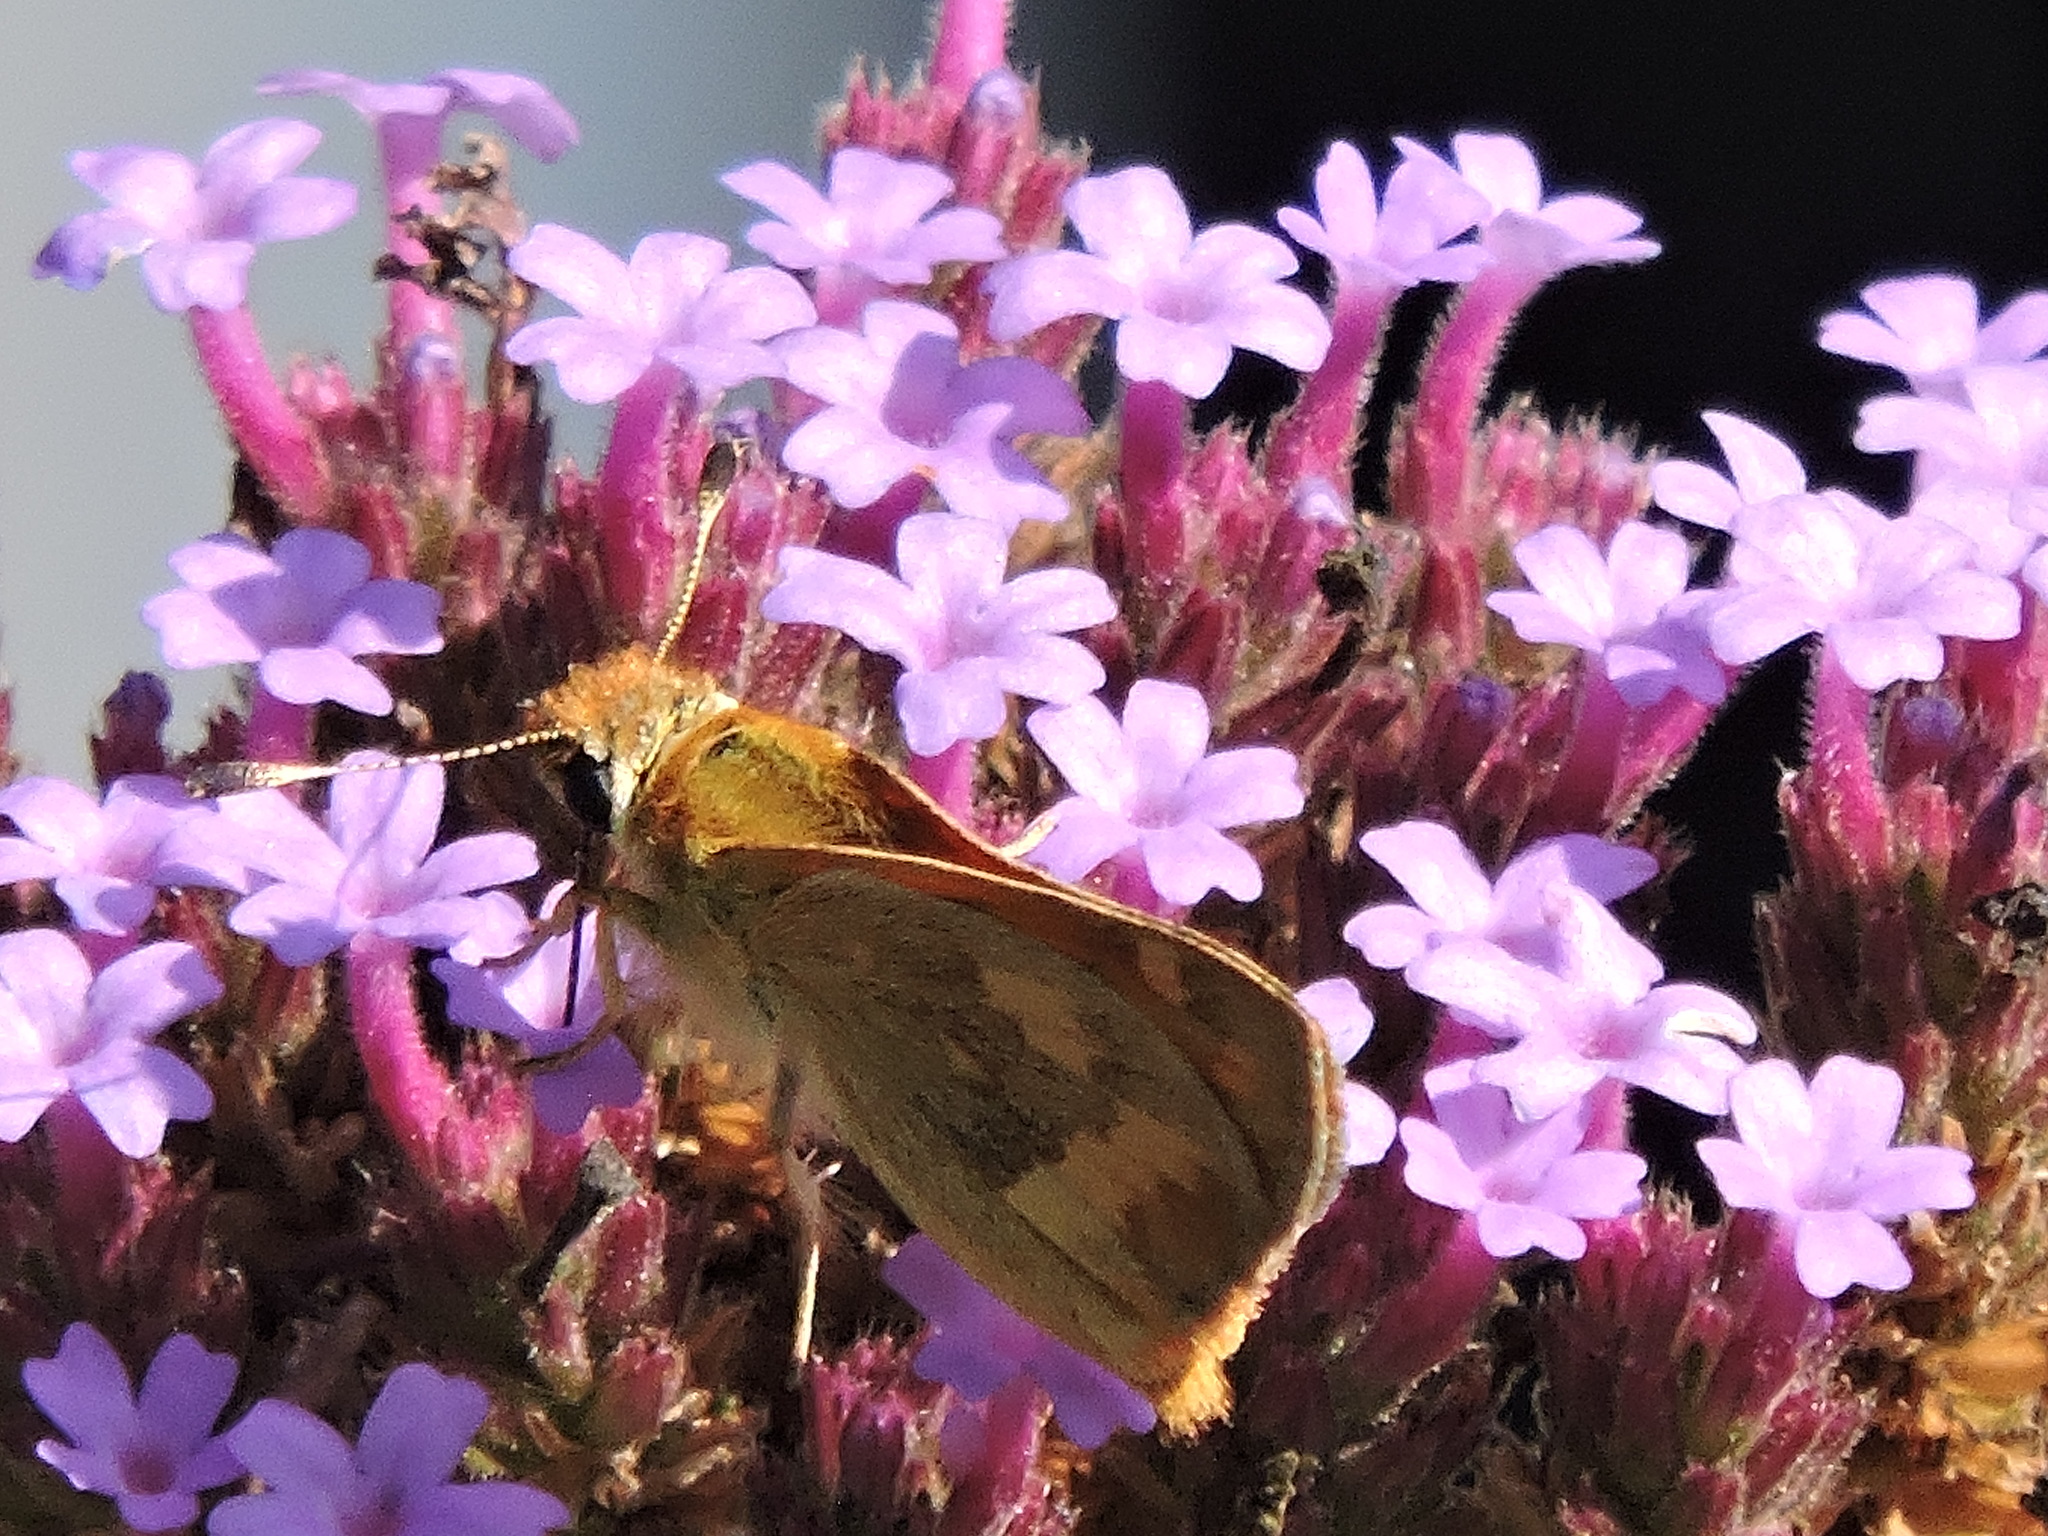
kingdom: Animalia
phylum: Arthropoda
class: Insecta
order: Lepidoptera
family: Hesperiidae
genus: Ochlodes
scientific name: Ochlodes sylvanoides
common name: Woodland skipper
